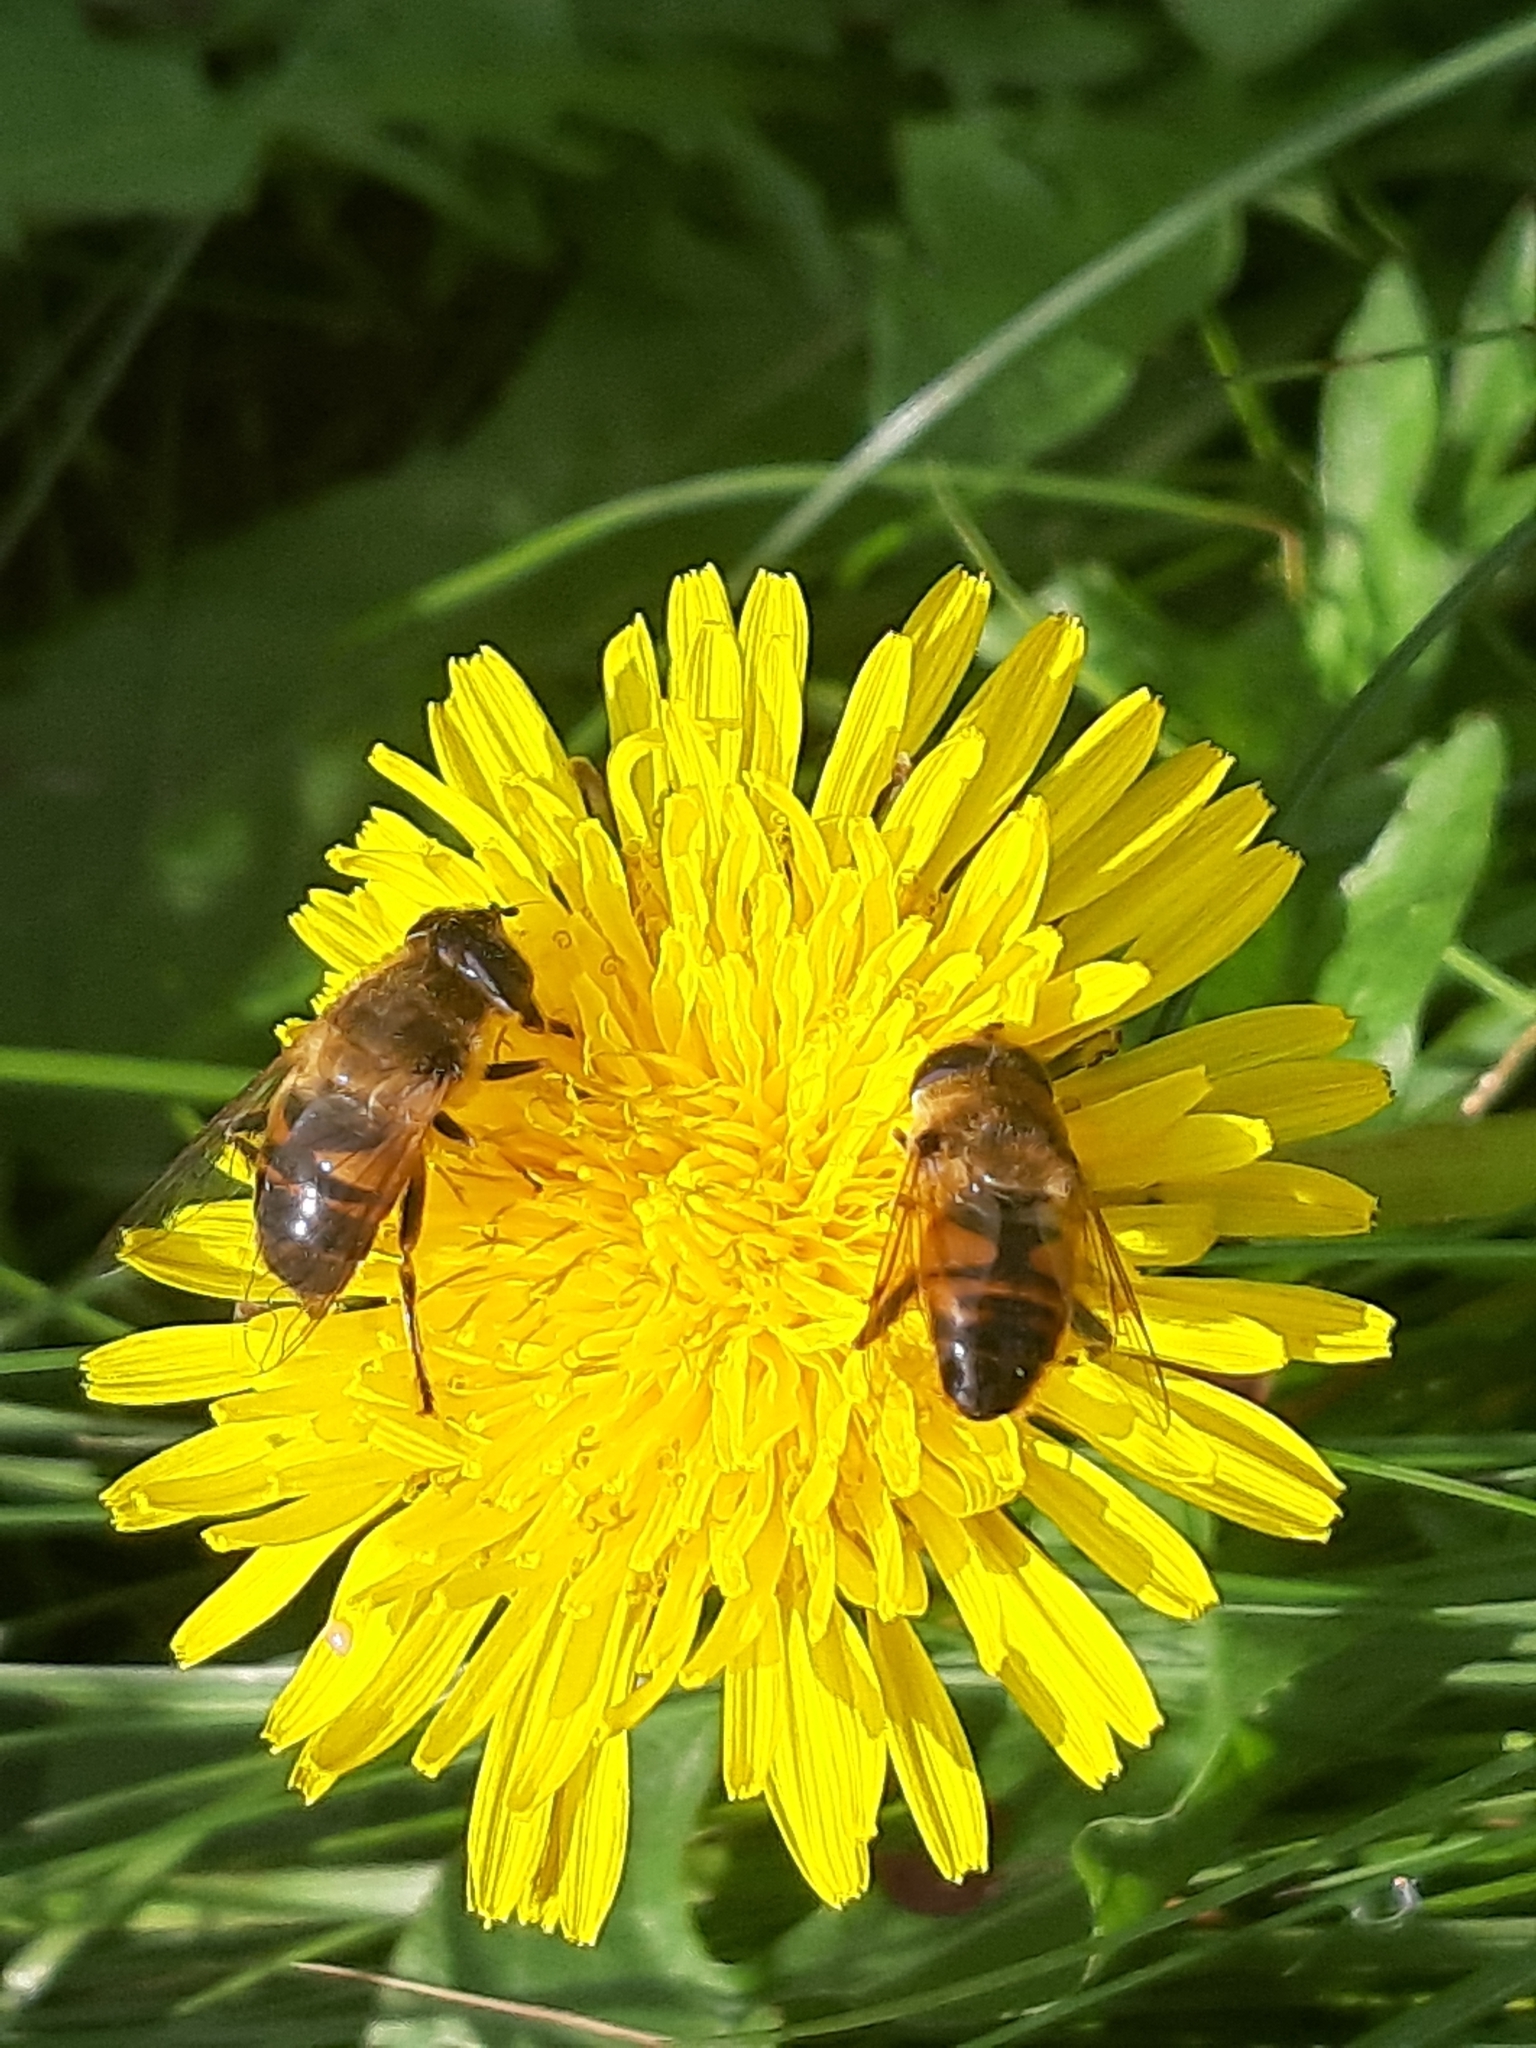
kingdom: Animalia
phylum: Arthropoda
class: Insecta
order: Diptera
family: Syrphidae
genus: Eristalis
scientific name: Eristalis tenax
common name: Drone fly
